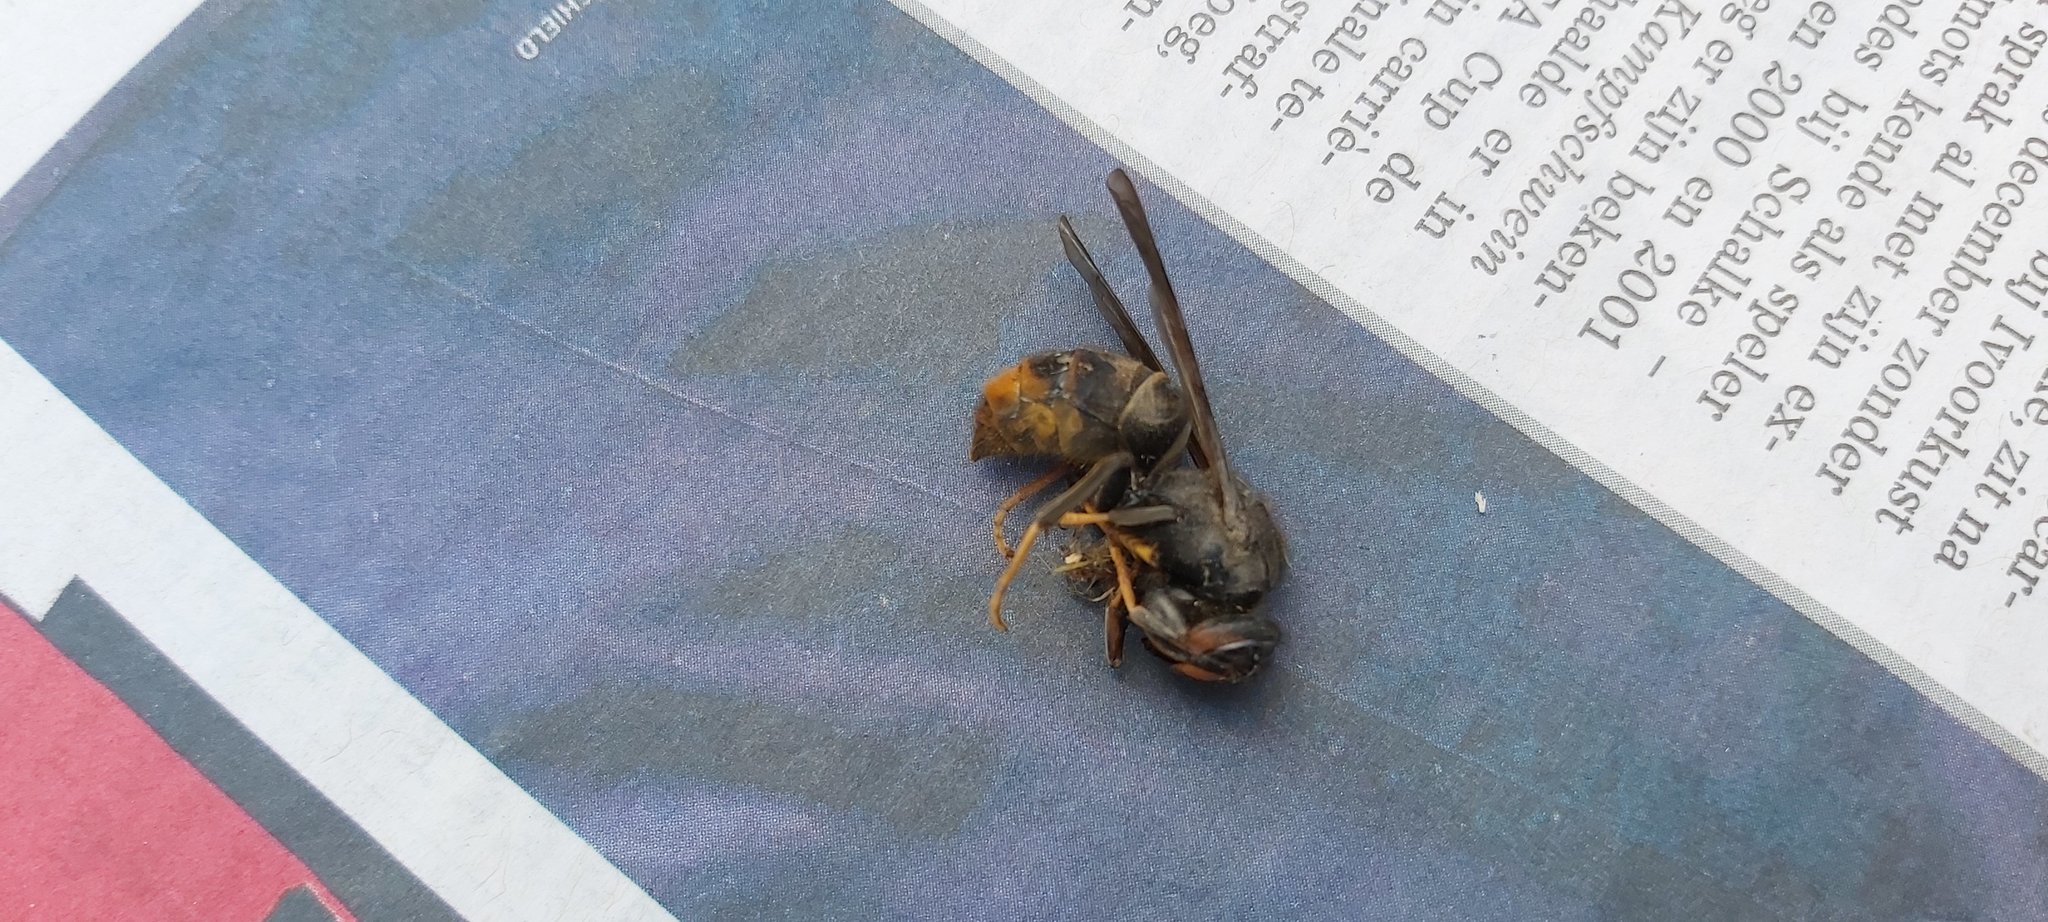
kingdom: Animalia
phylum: Arthropoda
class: Insecta
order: Hymenoptera
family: Vespidae
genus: Vespa
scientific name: Vespa velutina
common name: Asian hornet
